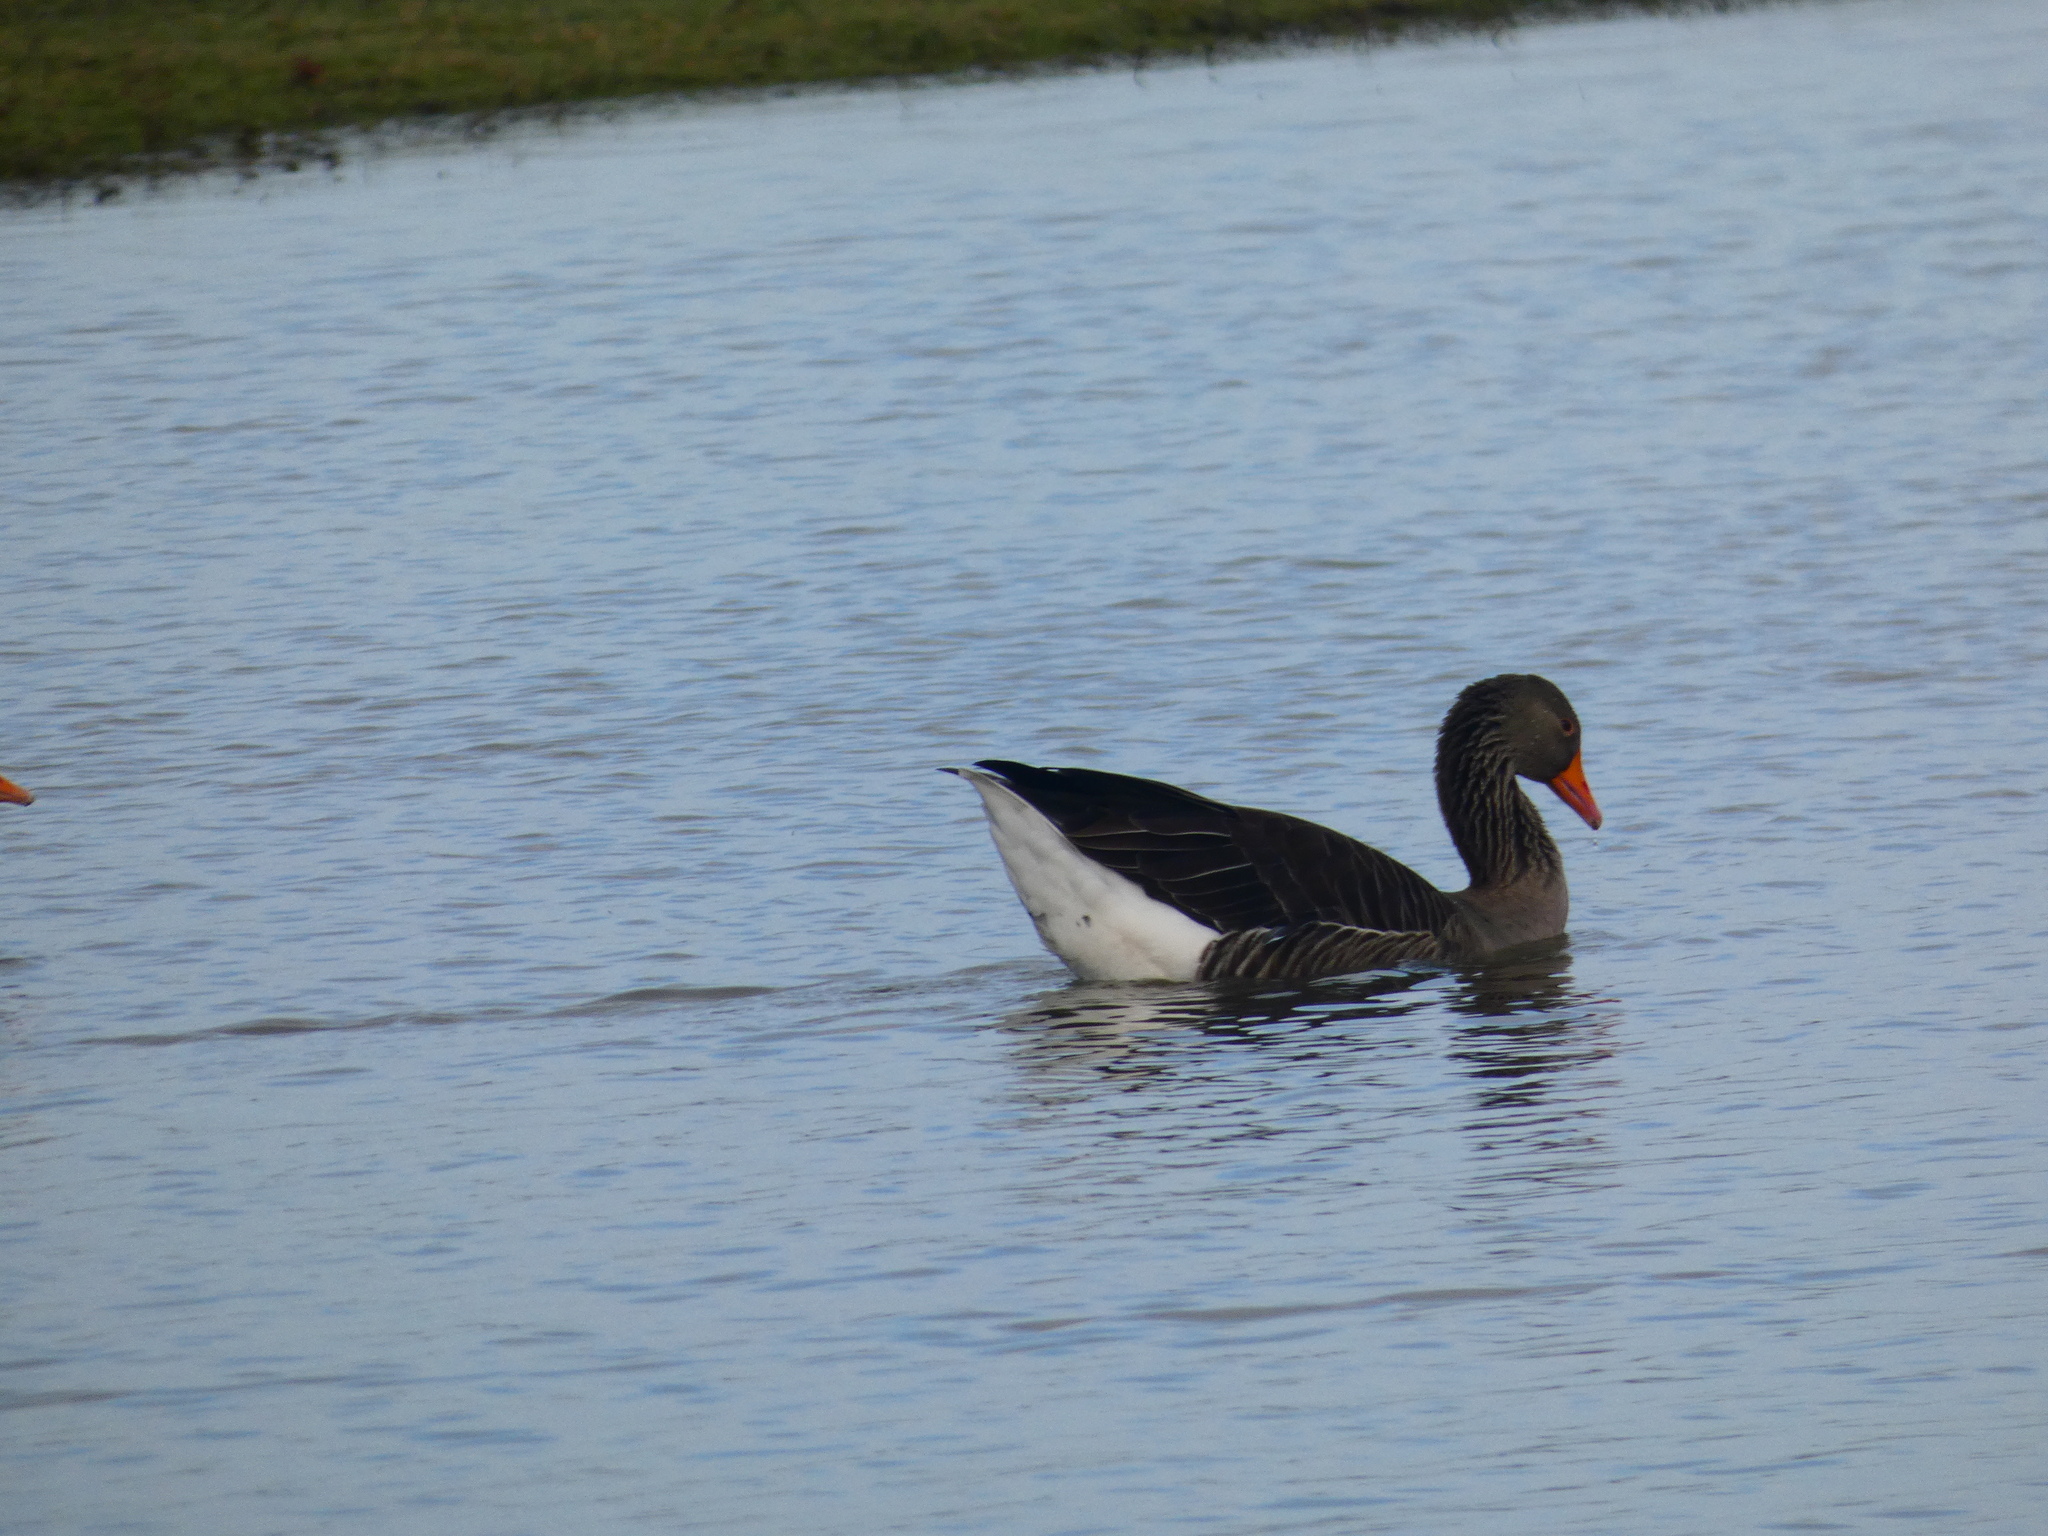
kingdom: Animalia
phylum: Chordata
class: Aves
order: Anseriformes
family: Anatidae
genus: Anser
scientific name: Anser anser
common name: Greylag goose
